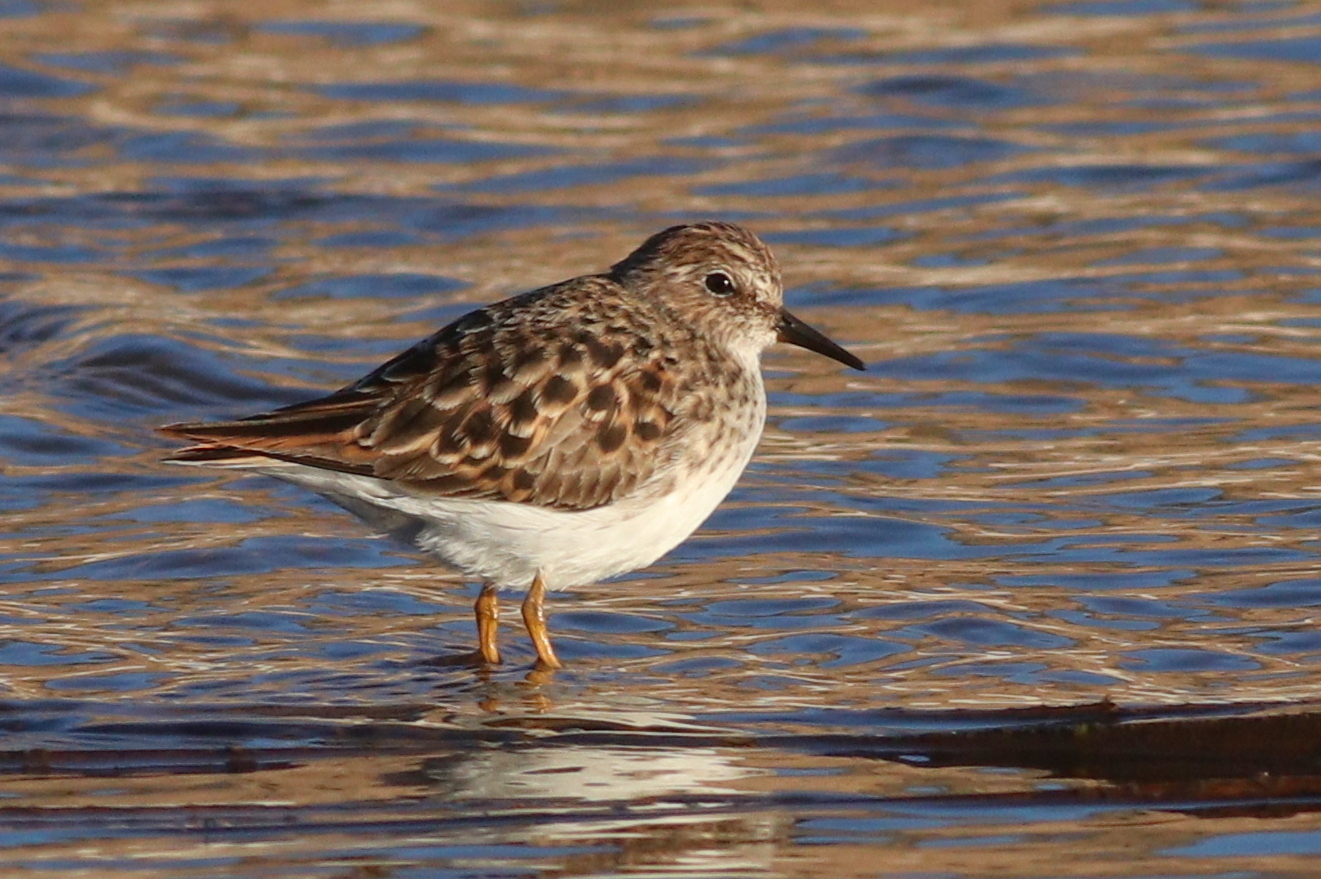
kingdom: Animalia
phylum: Chordata
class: Aves
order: Charadriiformes
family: Scolopacidae
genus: Calidris
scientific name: Calidris minutilla
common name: Least sandpiper
